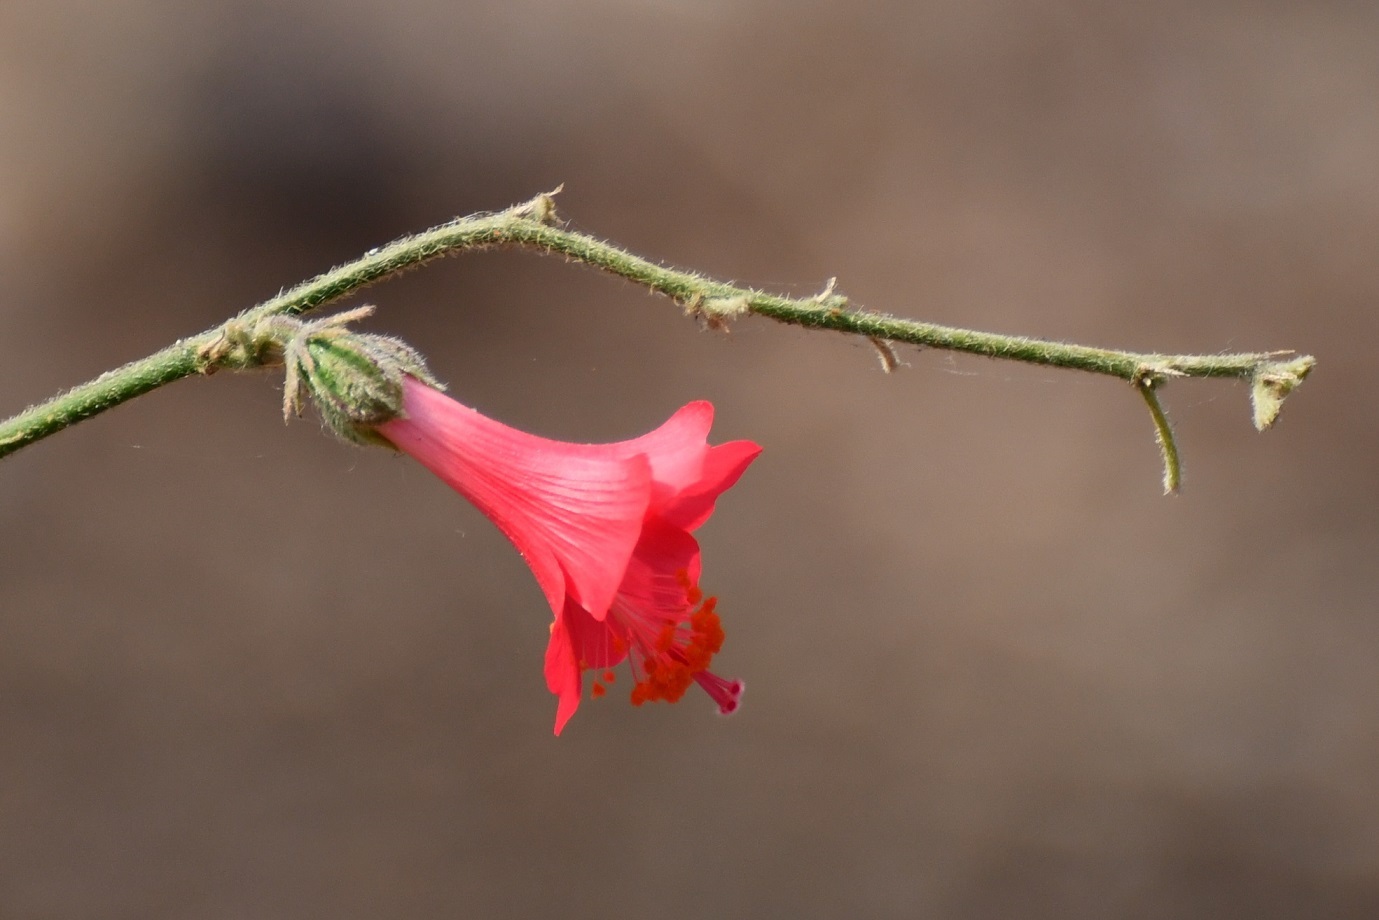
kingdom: Plantae
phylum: Tracheophyta
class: Magnoliopsida
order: Malvales
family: Malvaceae
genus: Hibiscus
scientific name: Hibiscus poeppigii
